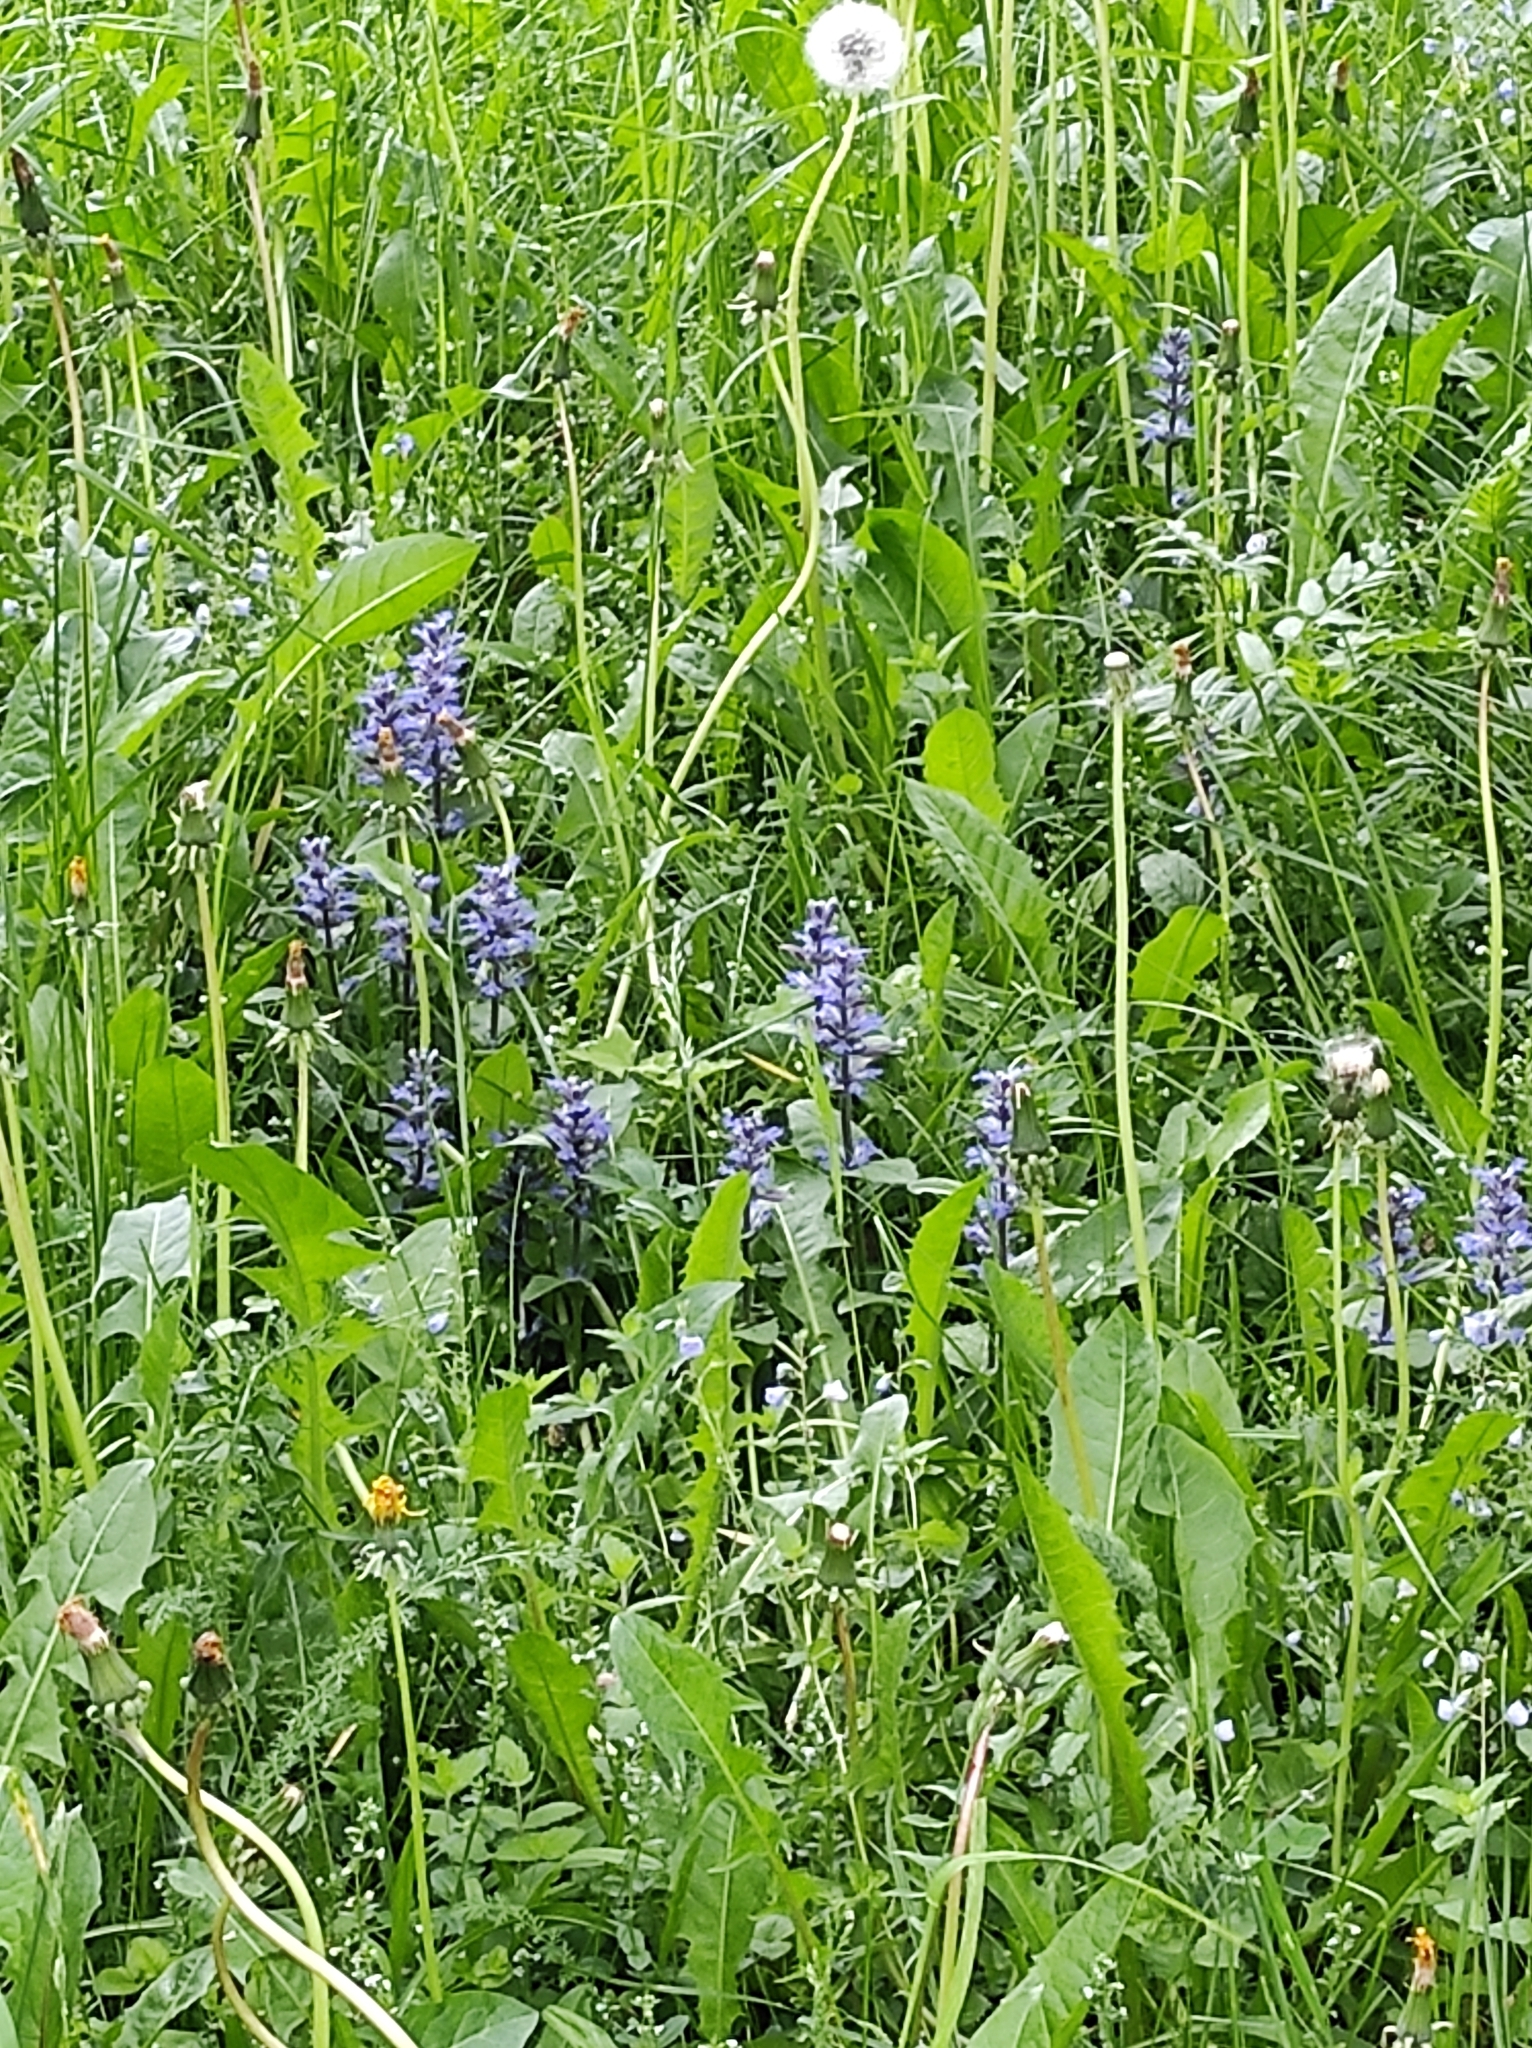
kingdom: Plantae
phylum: Tracheophyta
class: Magnoliopsida
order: Lamiales
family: Lamiaceae
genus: Ajuga
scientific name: Ajuga reptans
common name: Bugle
